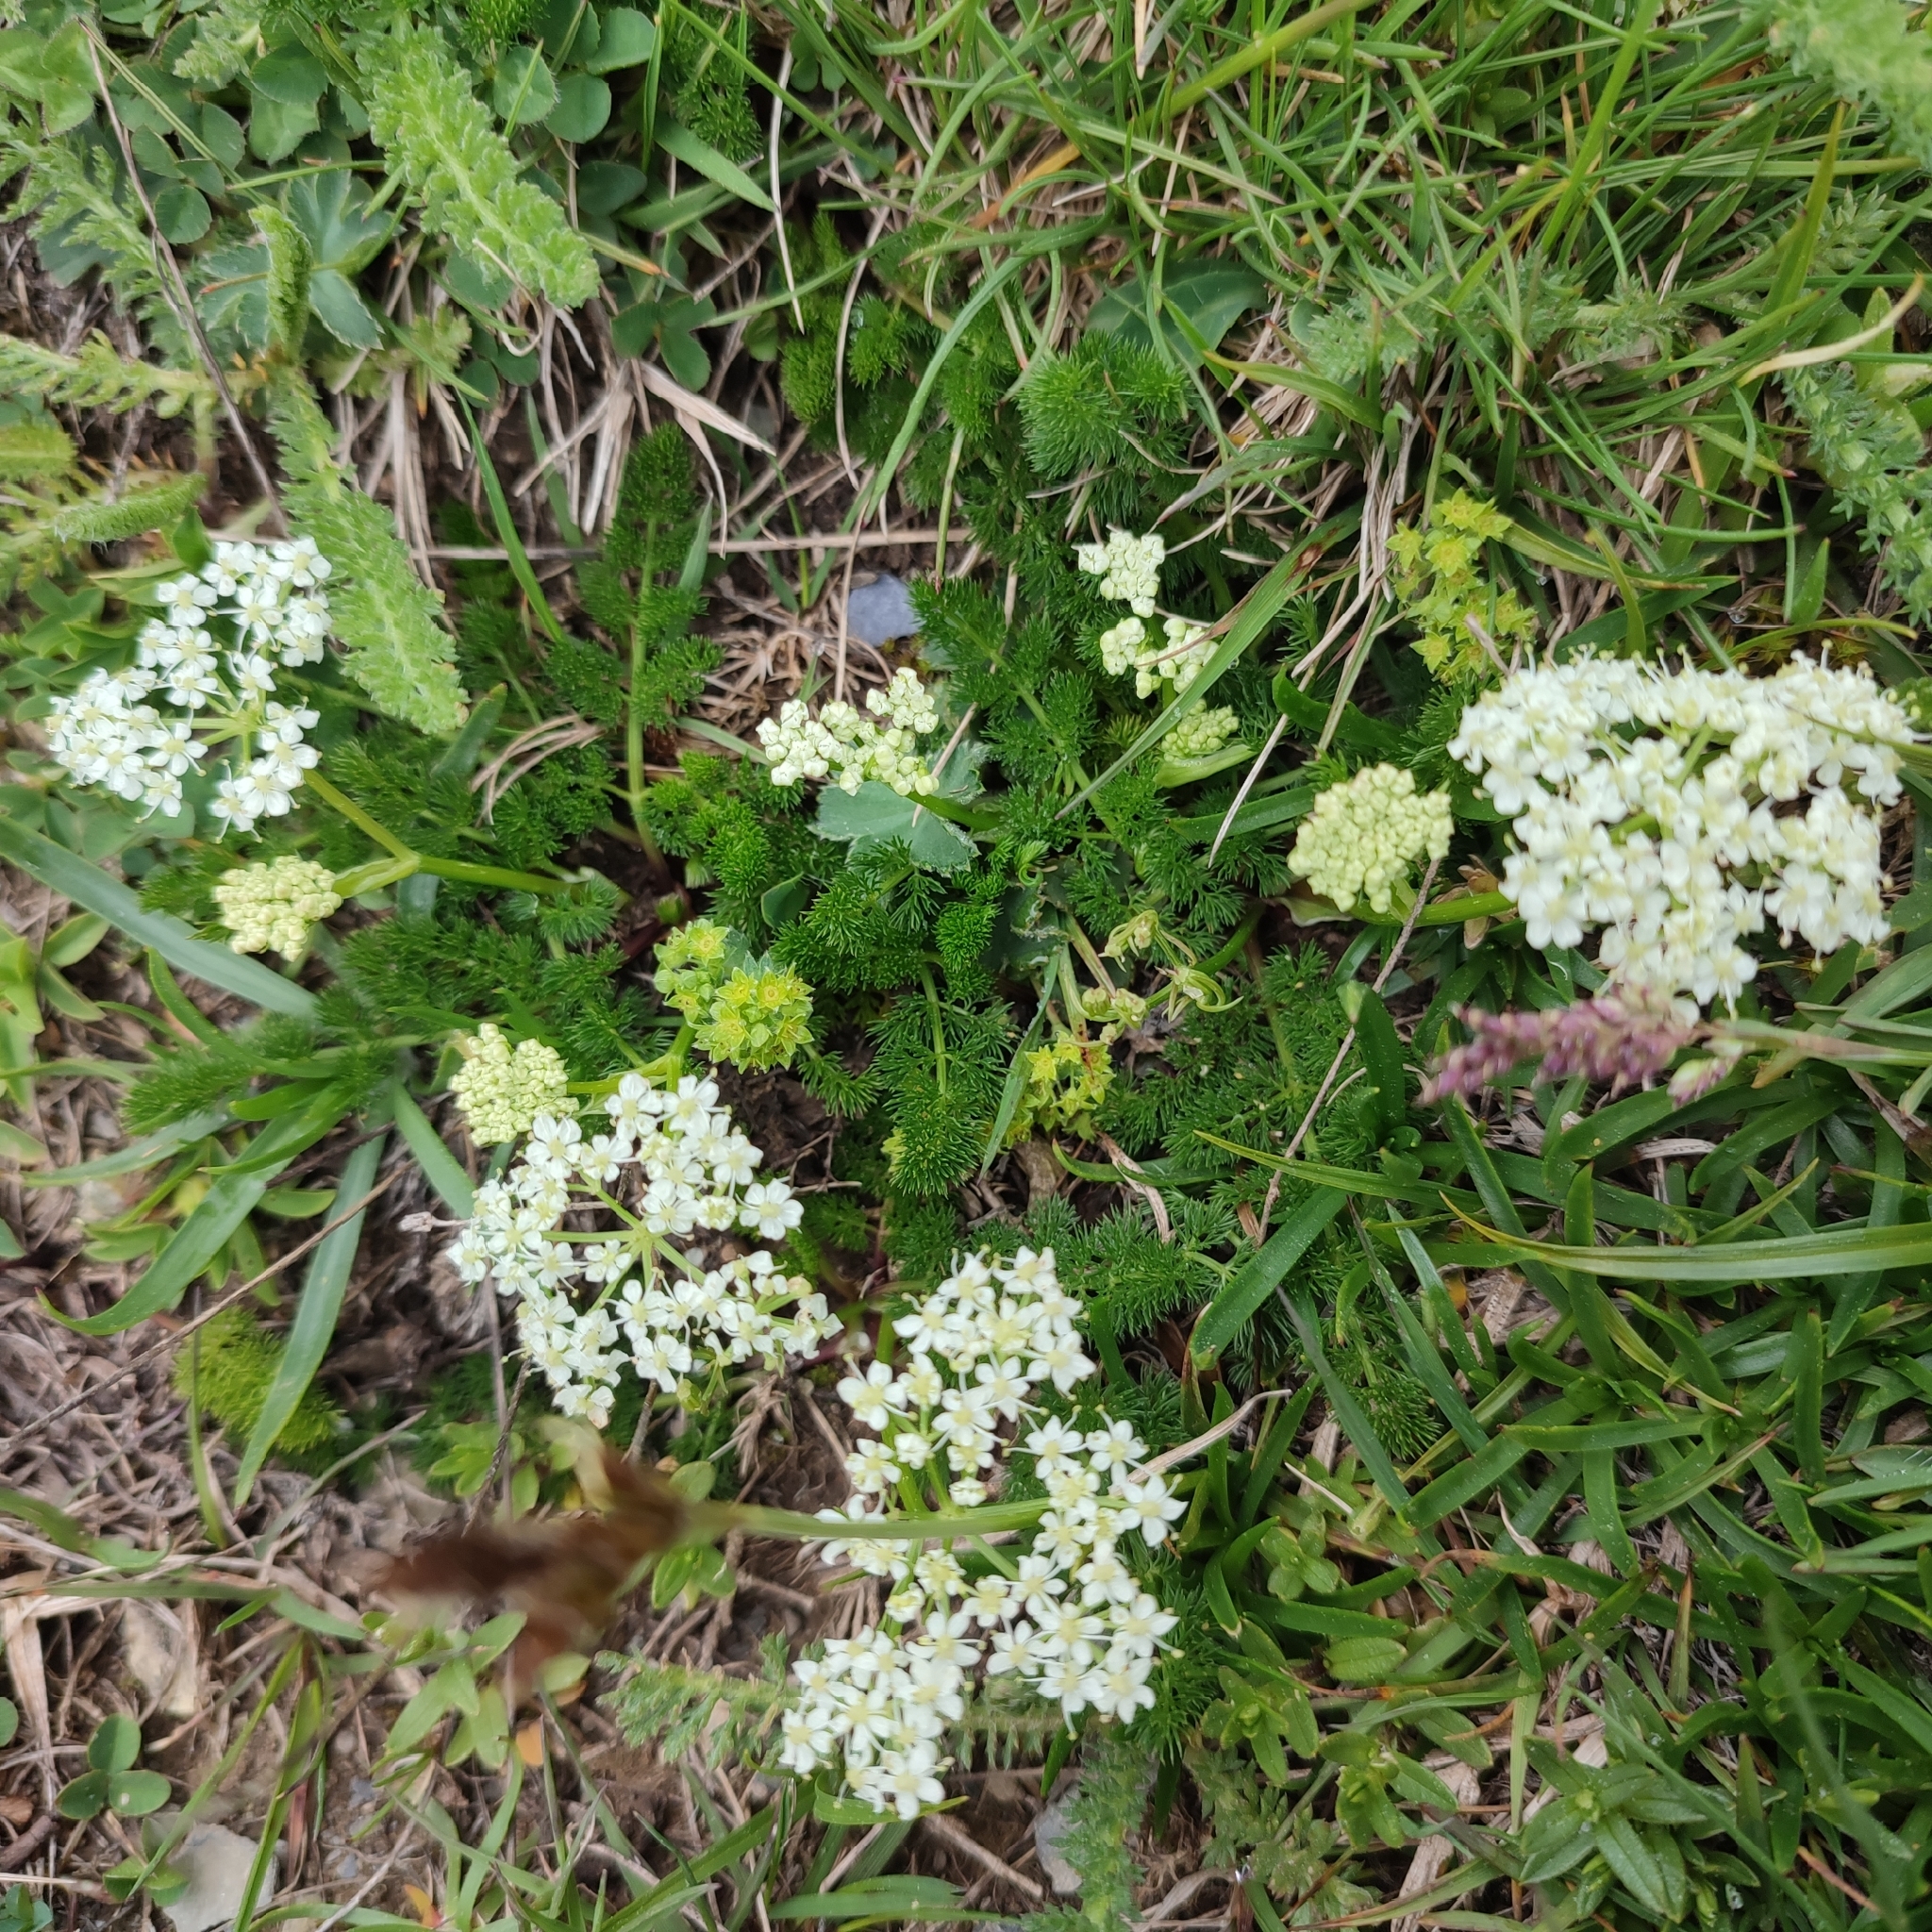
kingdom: Plantae
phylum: Tracheophyta
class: Magnoliopsida
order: Apiales
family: Apiaceae
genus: Meum
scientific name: Meum athamanticum
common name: Spignel
